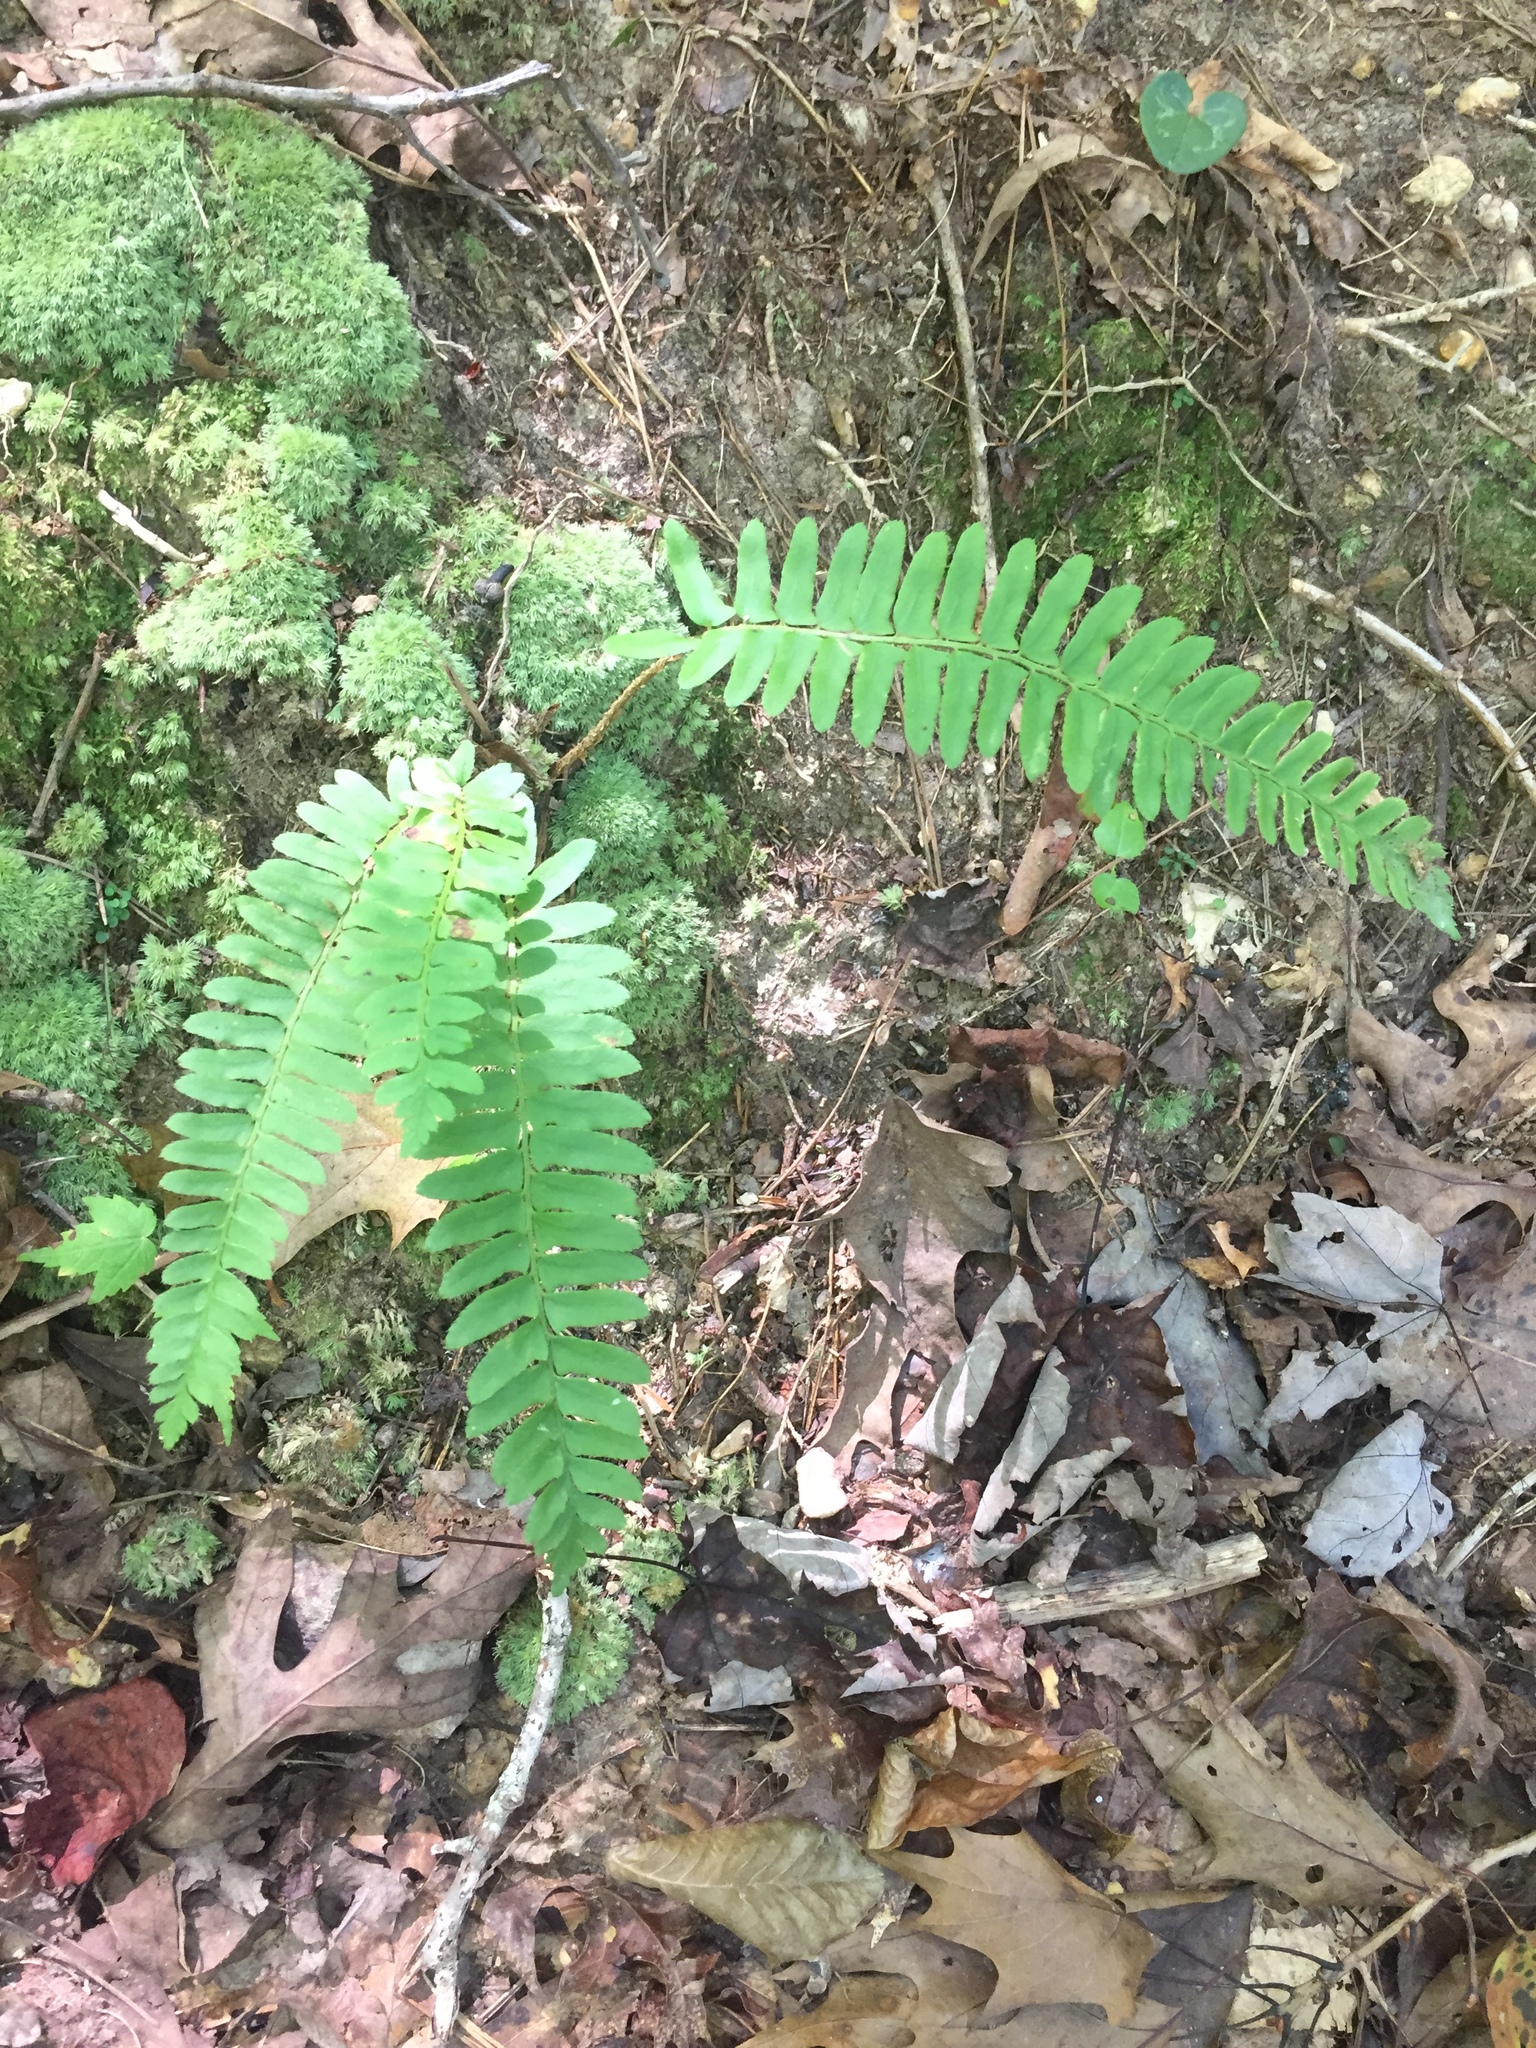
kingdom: Plantae
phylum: Tracheophyta
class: Polypodiopsida
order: Polypodiales
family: Dryopteridaceae
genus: Polystichum
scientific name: Polystichum acrostichoides
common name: Christmas fern
